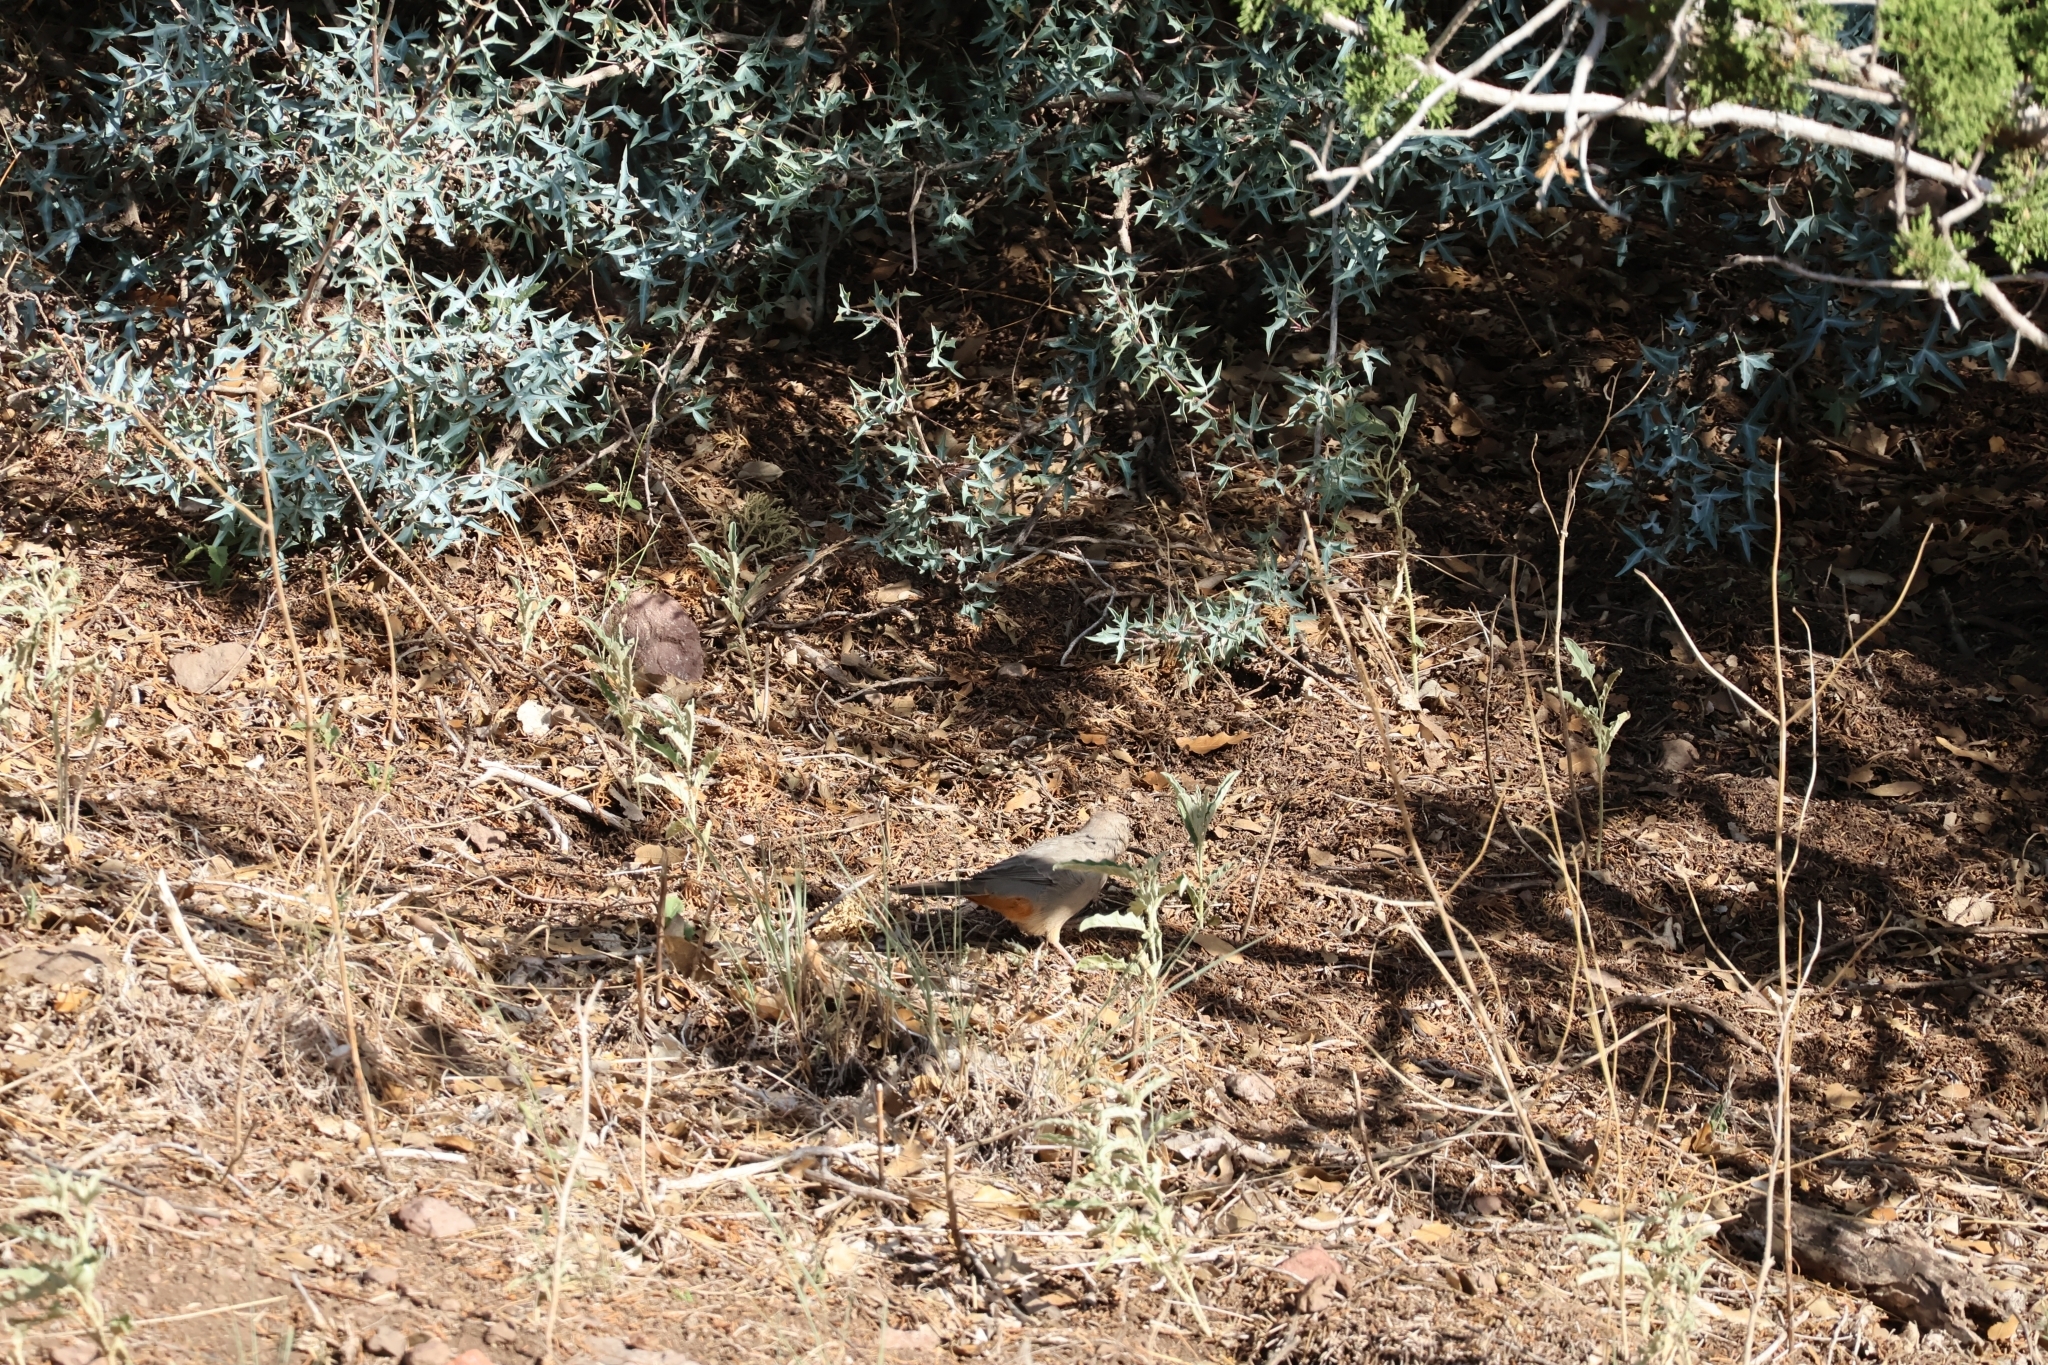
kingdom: Animalia
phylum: Chordata
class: Aves
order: Passeriformes
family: Passerellidae
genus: Melozone
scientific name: Melozone fusca
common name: Canyon towhee
